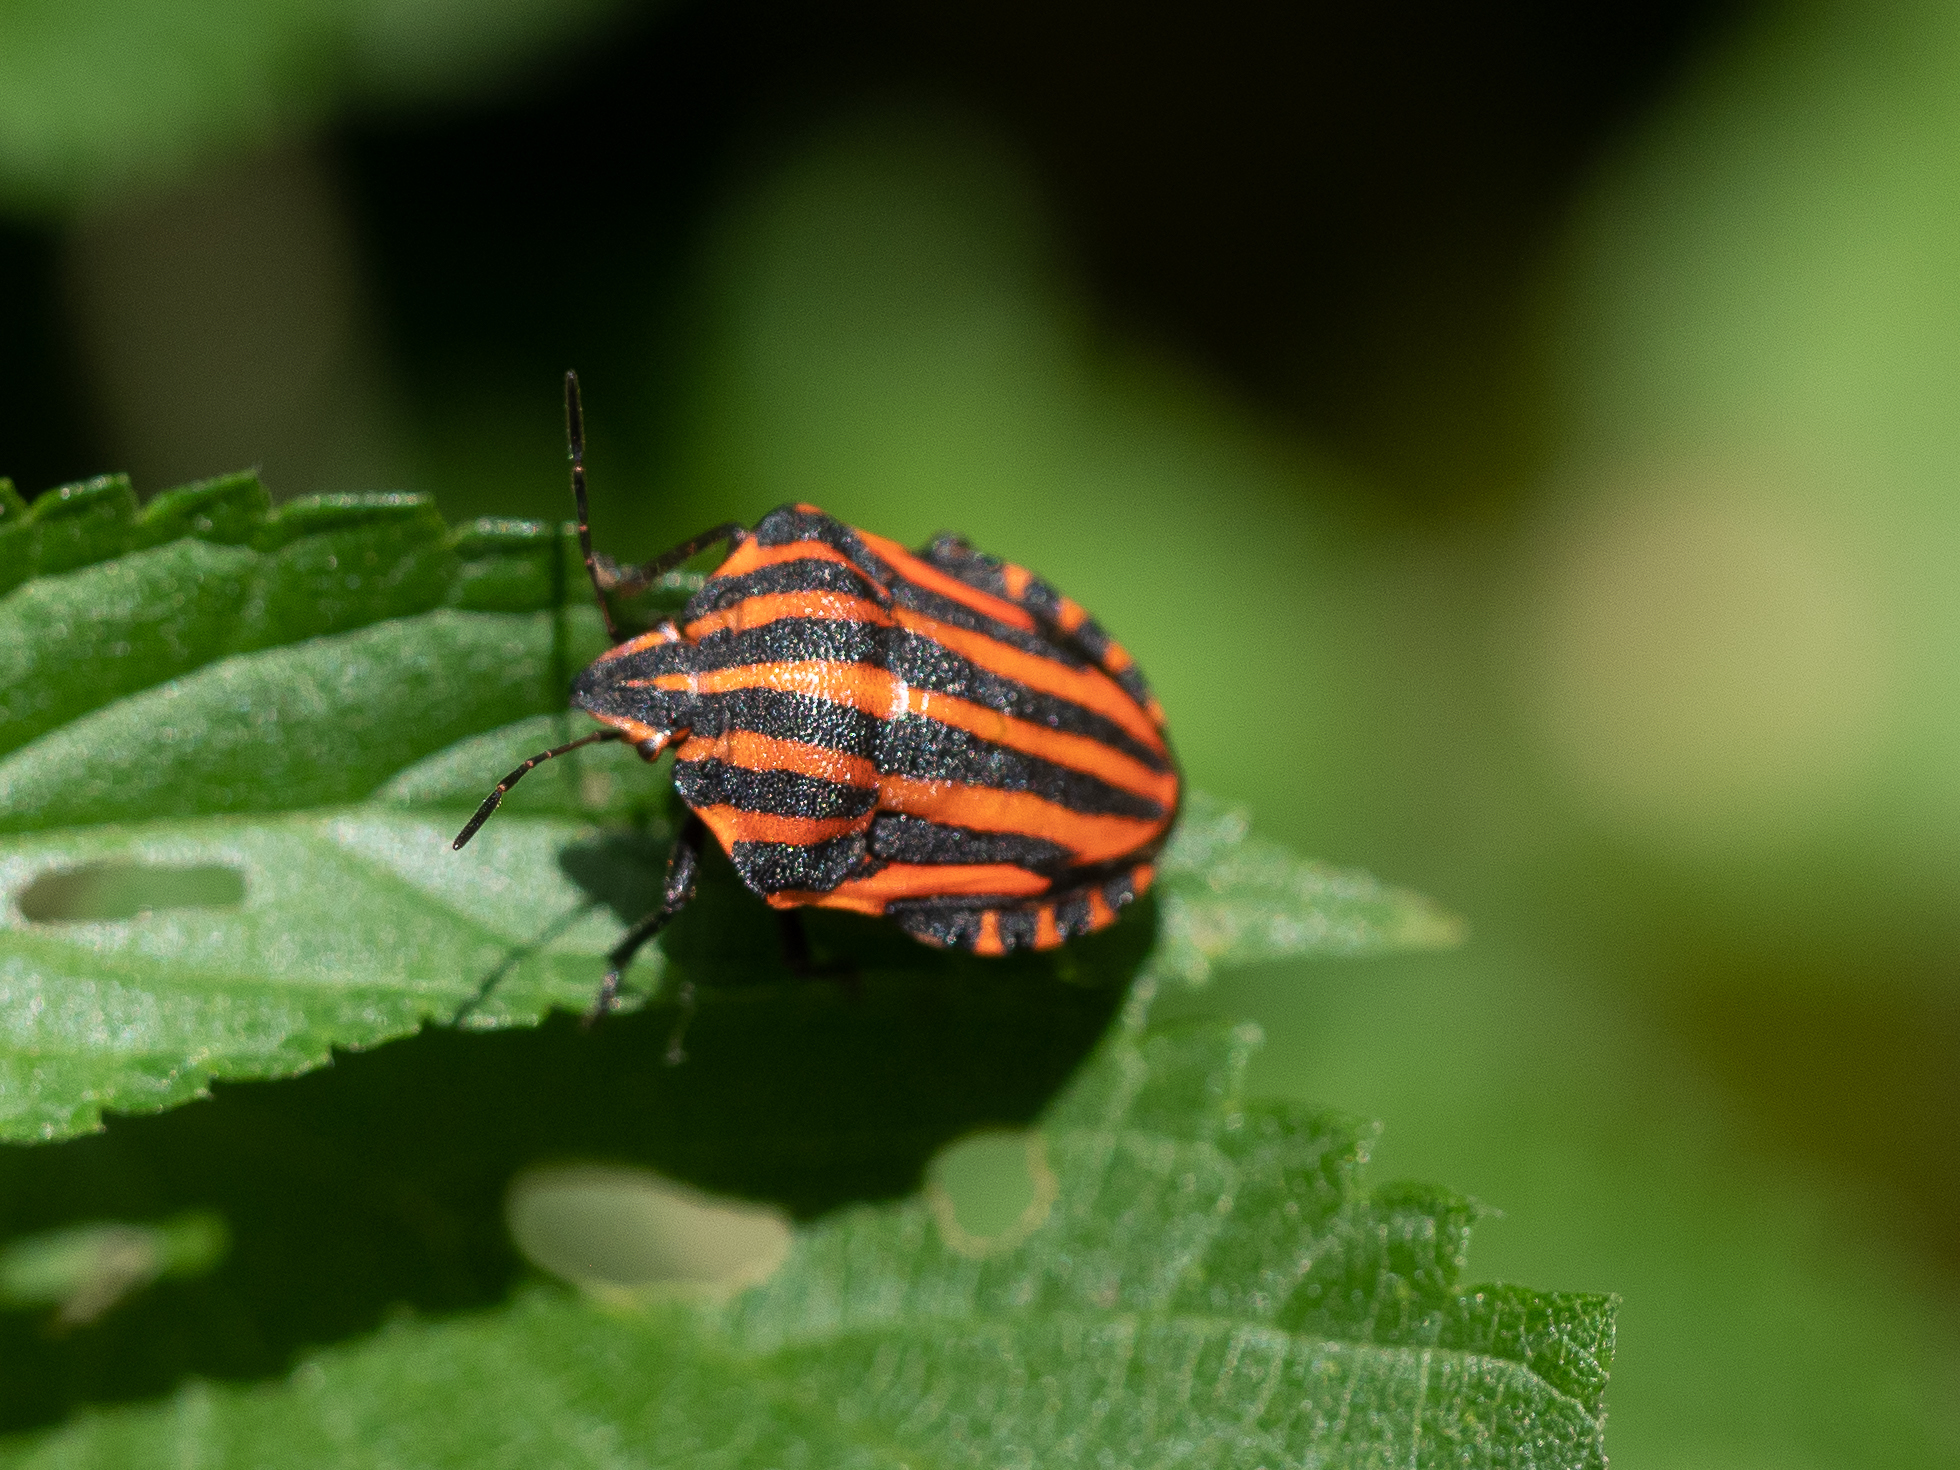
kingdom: Animalia
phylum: Arthropoda
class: Insecta
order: Hemiptera
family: Pentatomidae
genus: Graphosoma
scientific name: Graphosoma italicum
